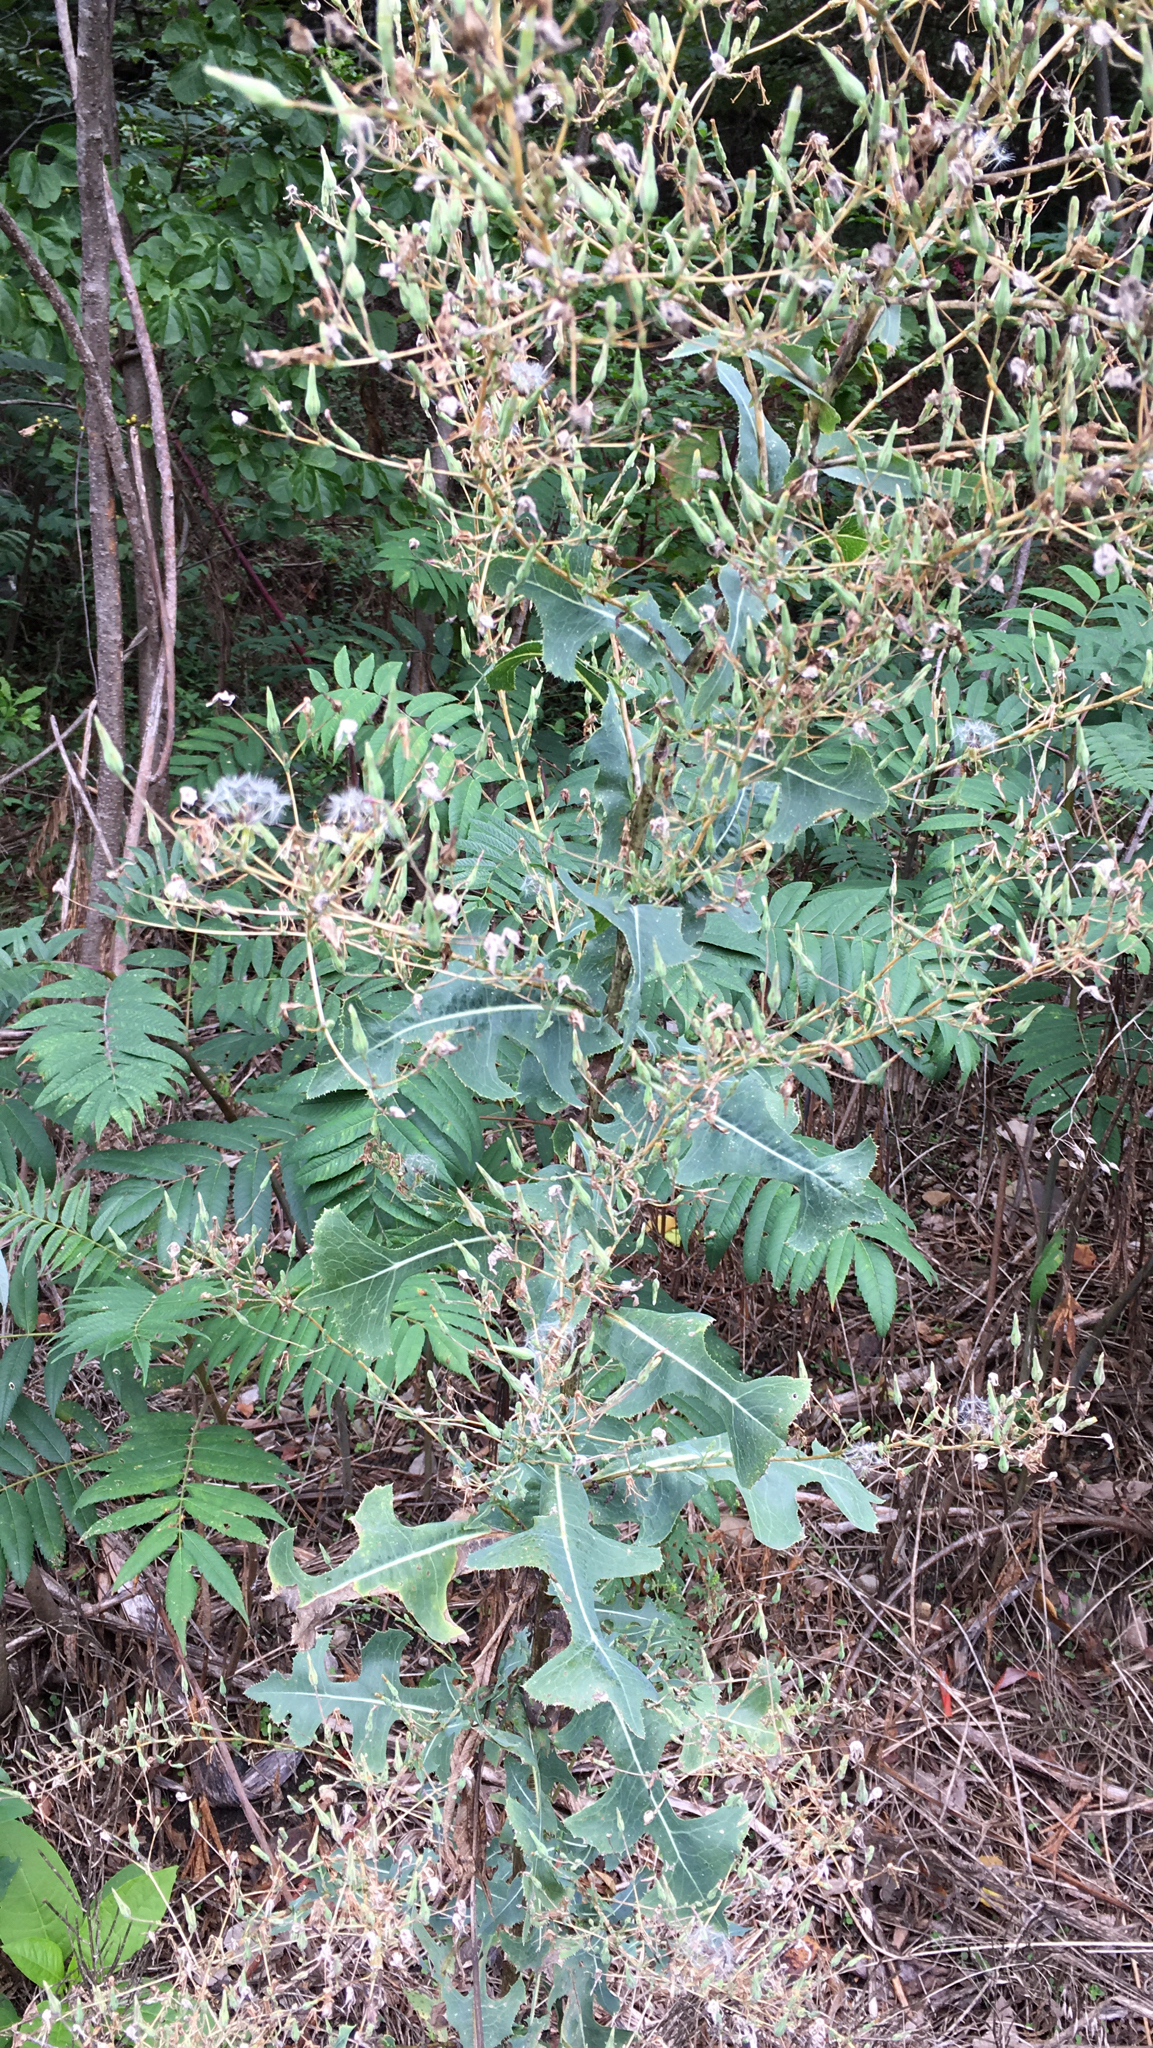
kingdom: Plantae
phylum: Tracheophyta
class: Magnoliopsida
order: Asterales
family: Asteraceae
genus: Lactuca
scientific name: Lactuca serriola
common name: Prickly lettuce
